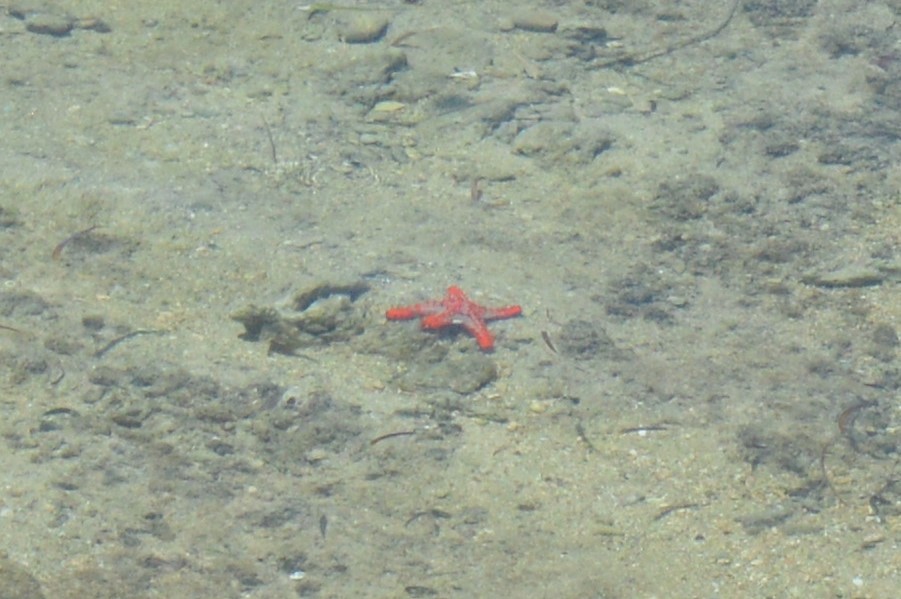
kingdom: Animalia
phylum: Echinodermata
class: Asteroidea
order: Valvatida
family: Oreasteridae
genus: Protoreaster
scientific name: Protoreaster lincki
